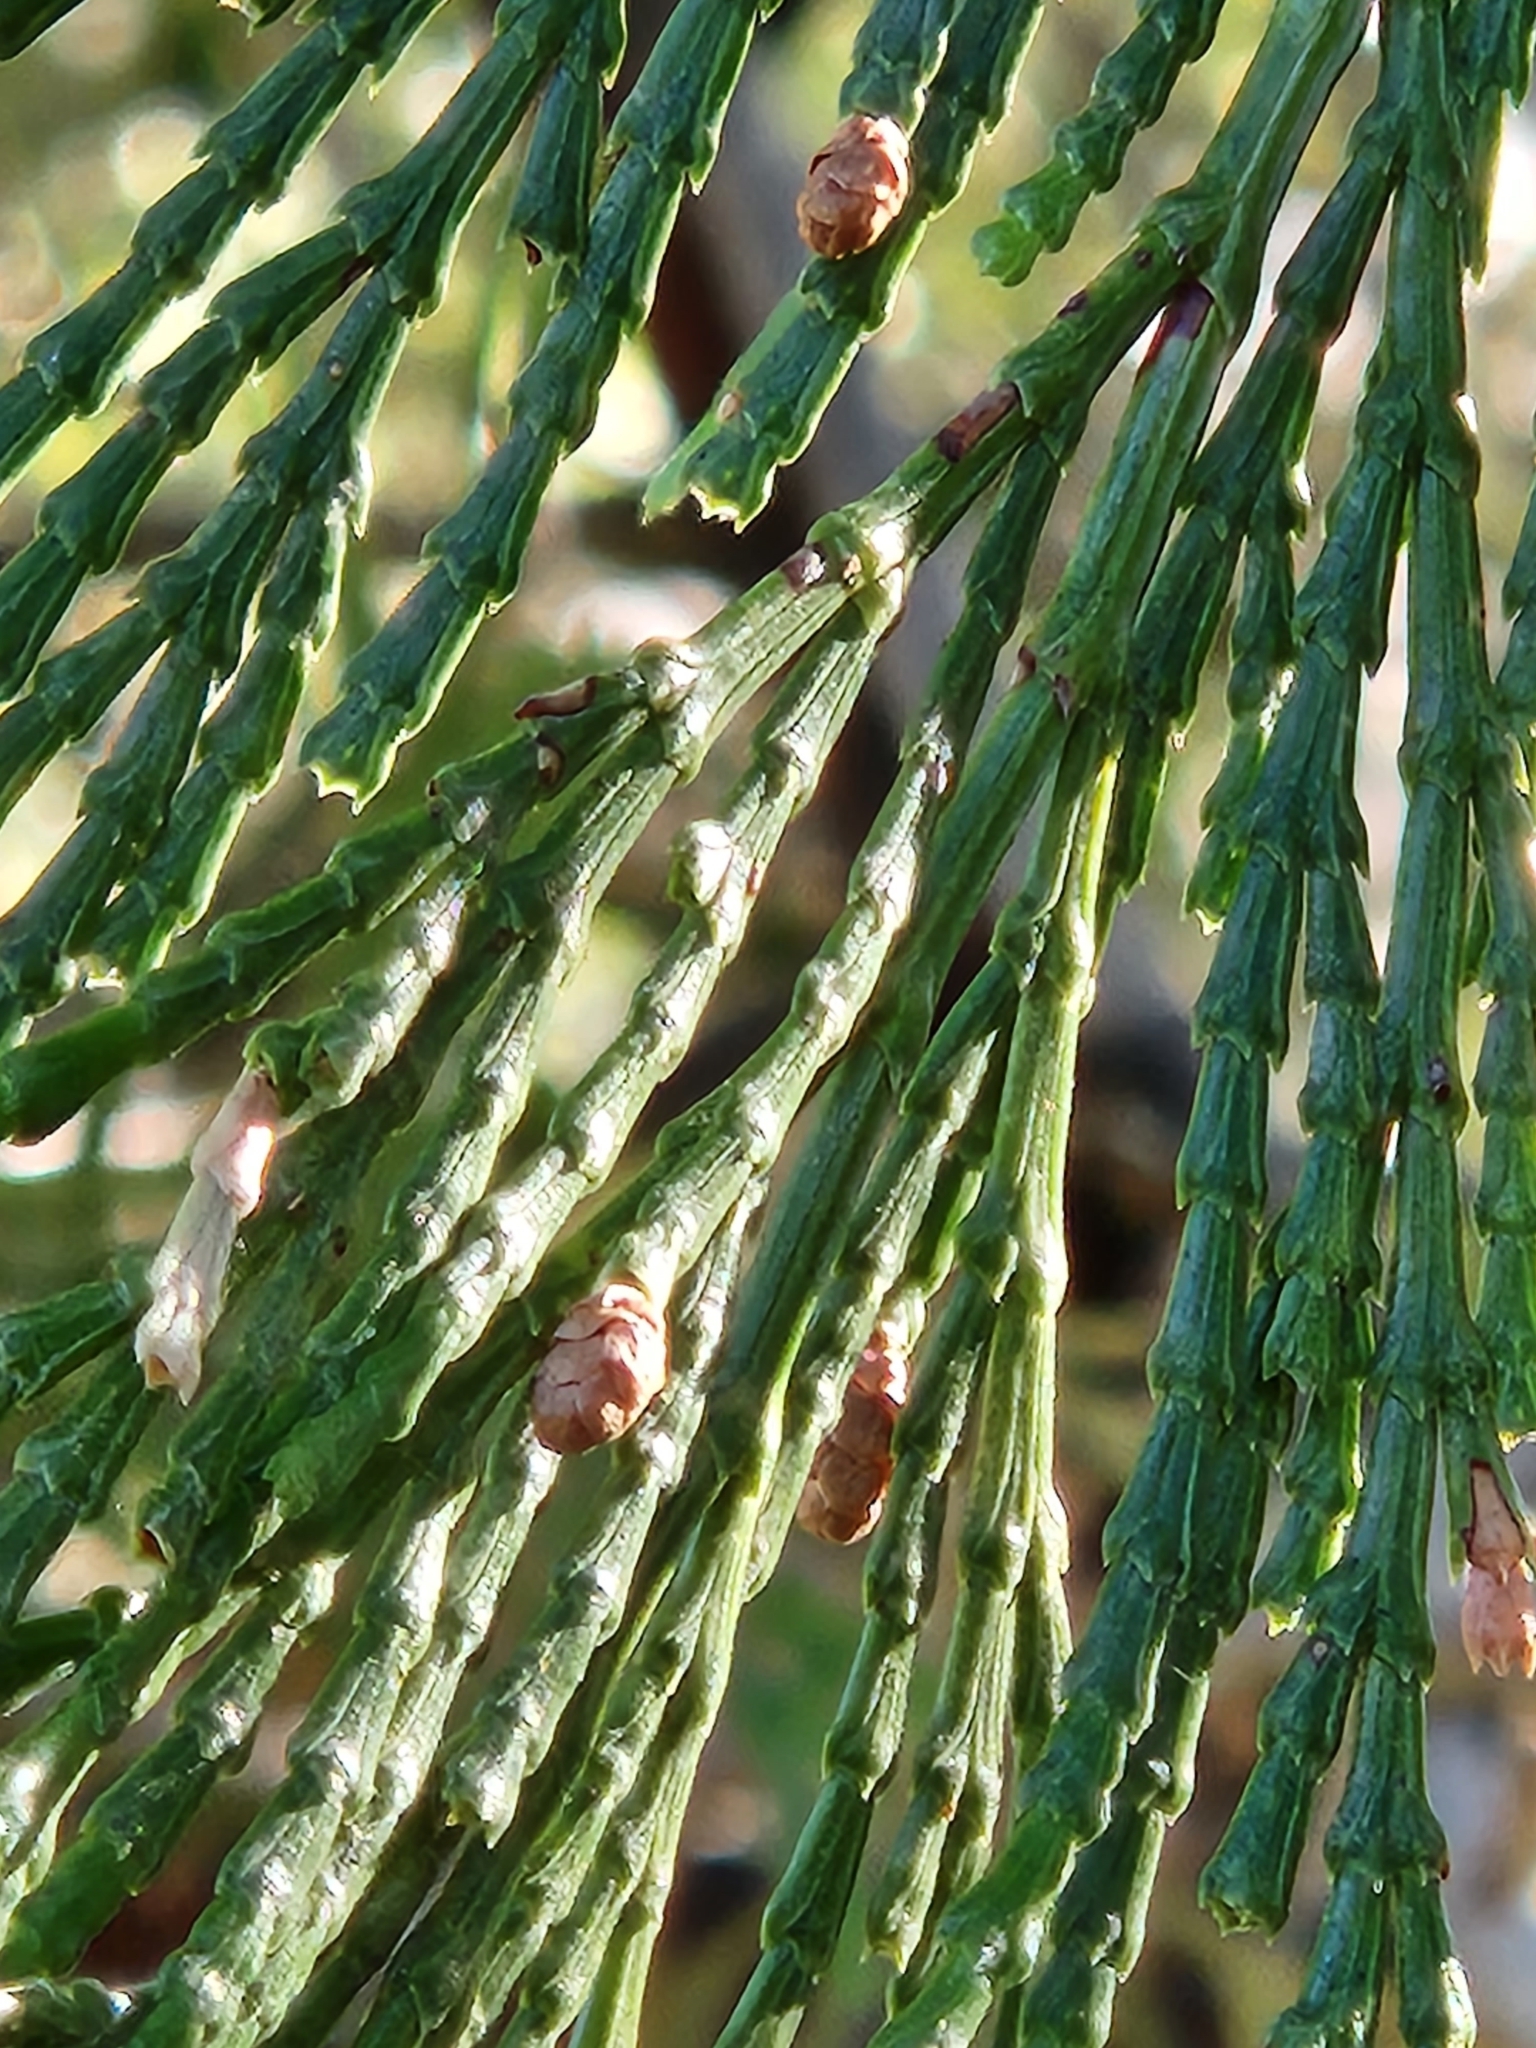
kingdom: Plantae
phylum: Tracheophyta
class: Pinopsida
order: Pinales
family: Cupressaceae
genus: Calocedrus
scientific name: Calocedrus decurrens
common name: Californian incense-cedar
